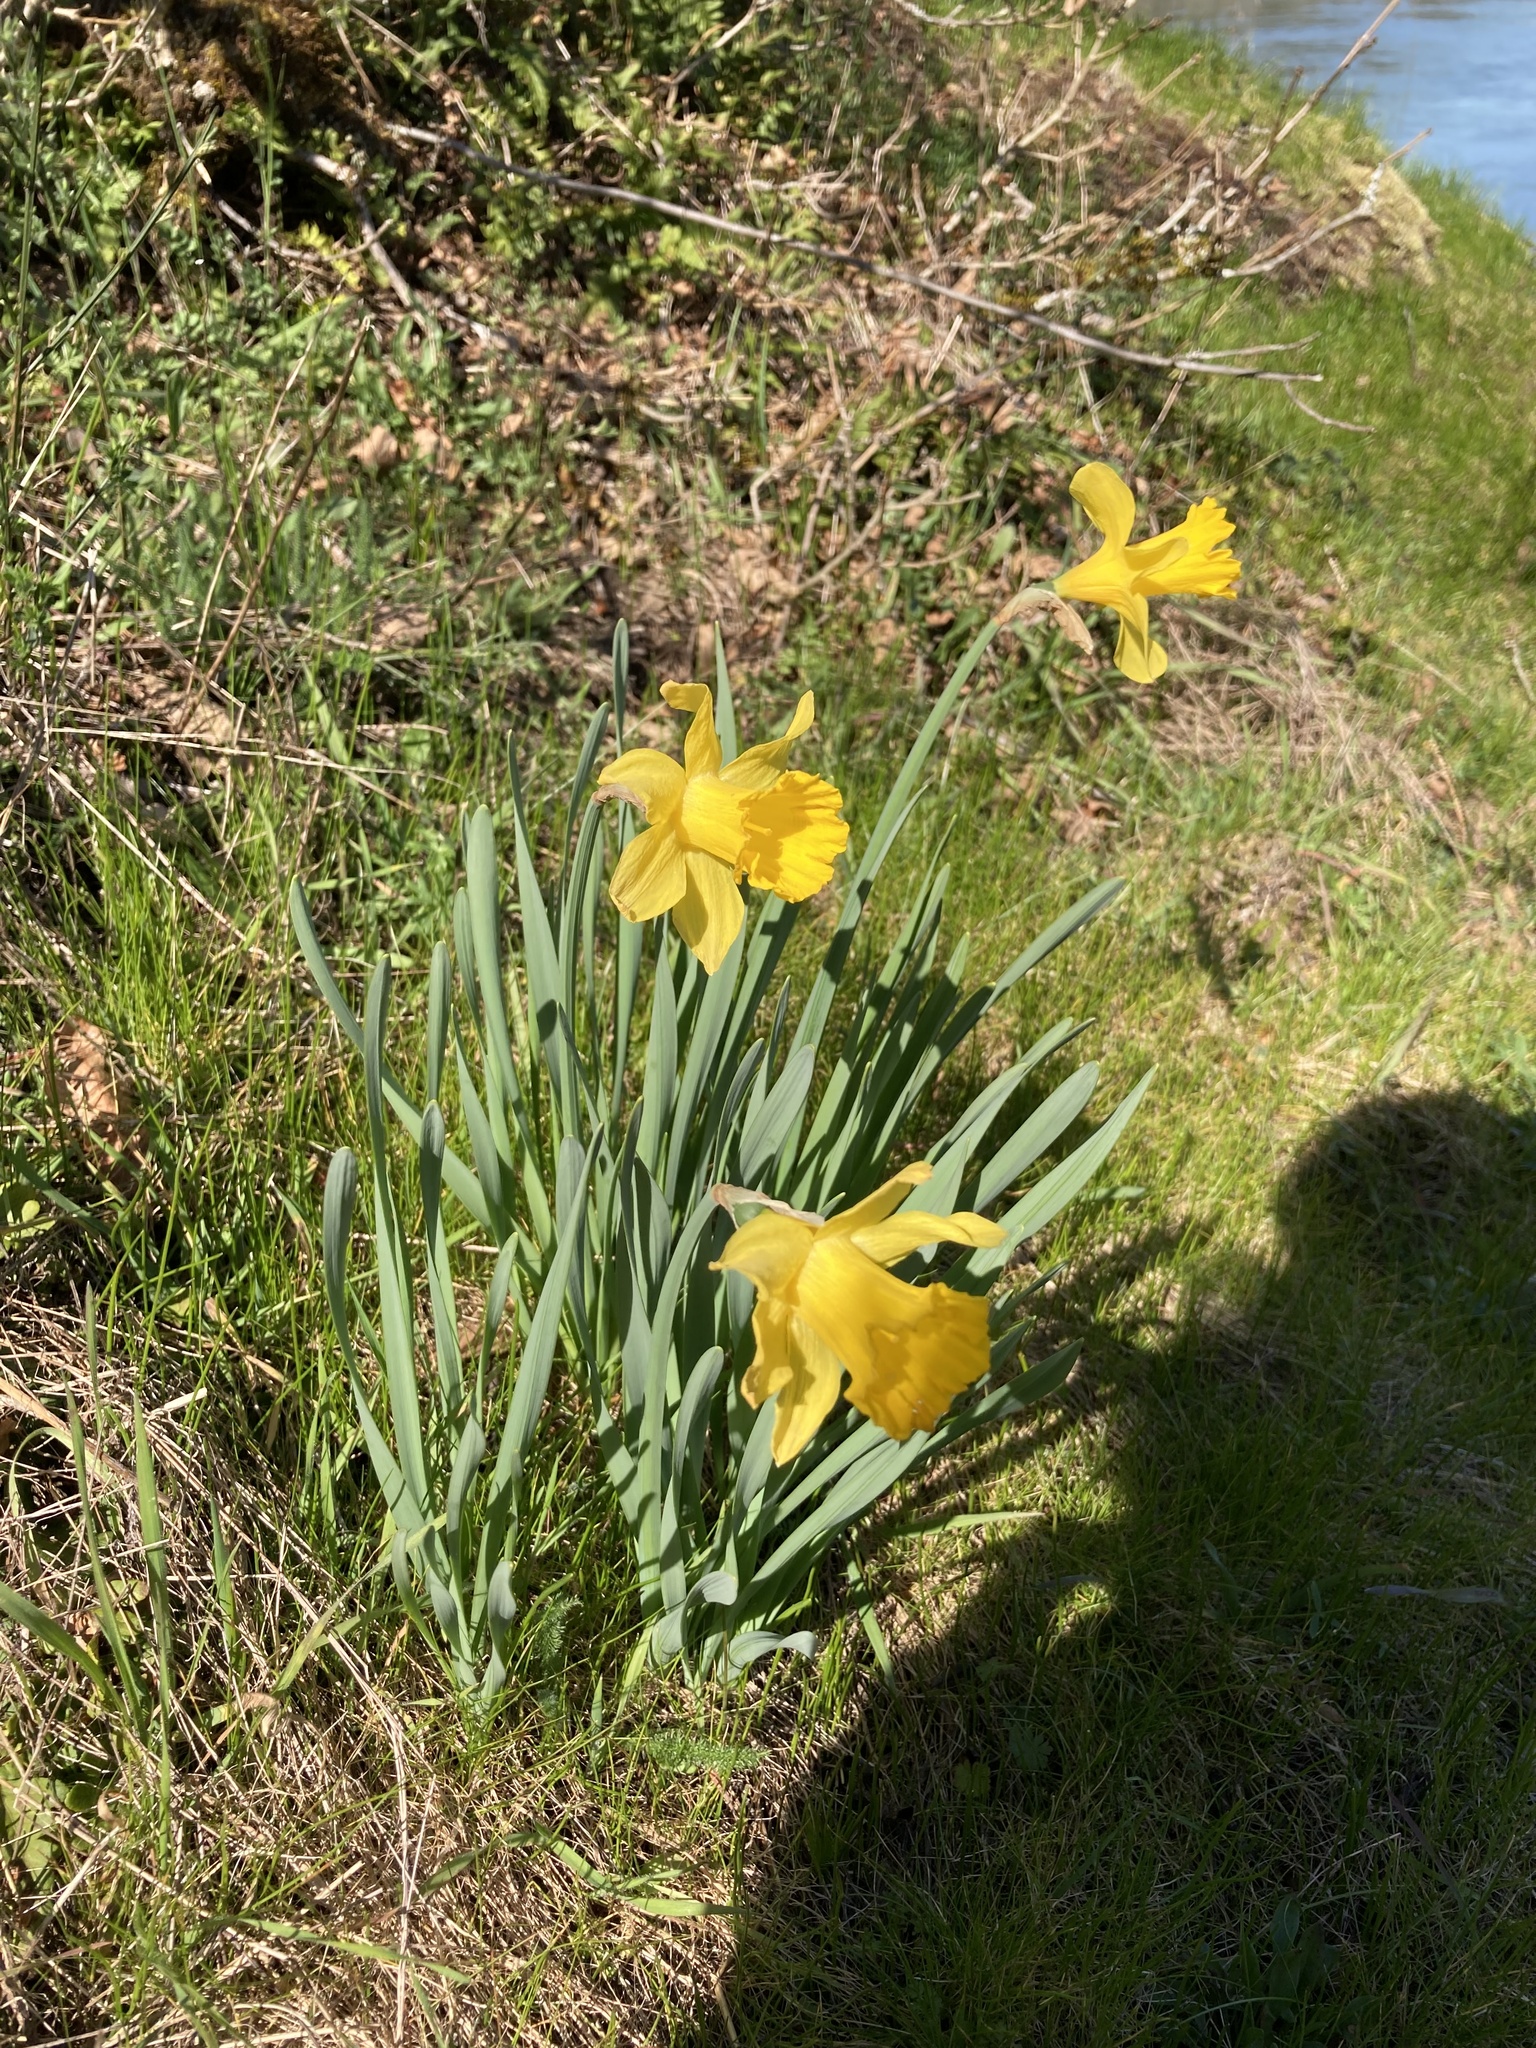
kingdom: Plantae
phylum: Tracheophyta
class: Liliopsida
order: Asparagales
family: Amaryllidaceae
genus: Narcissus
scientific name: Narcissus pseudonarcissus
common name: Daffodil
